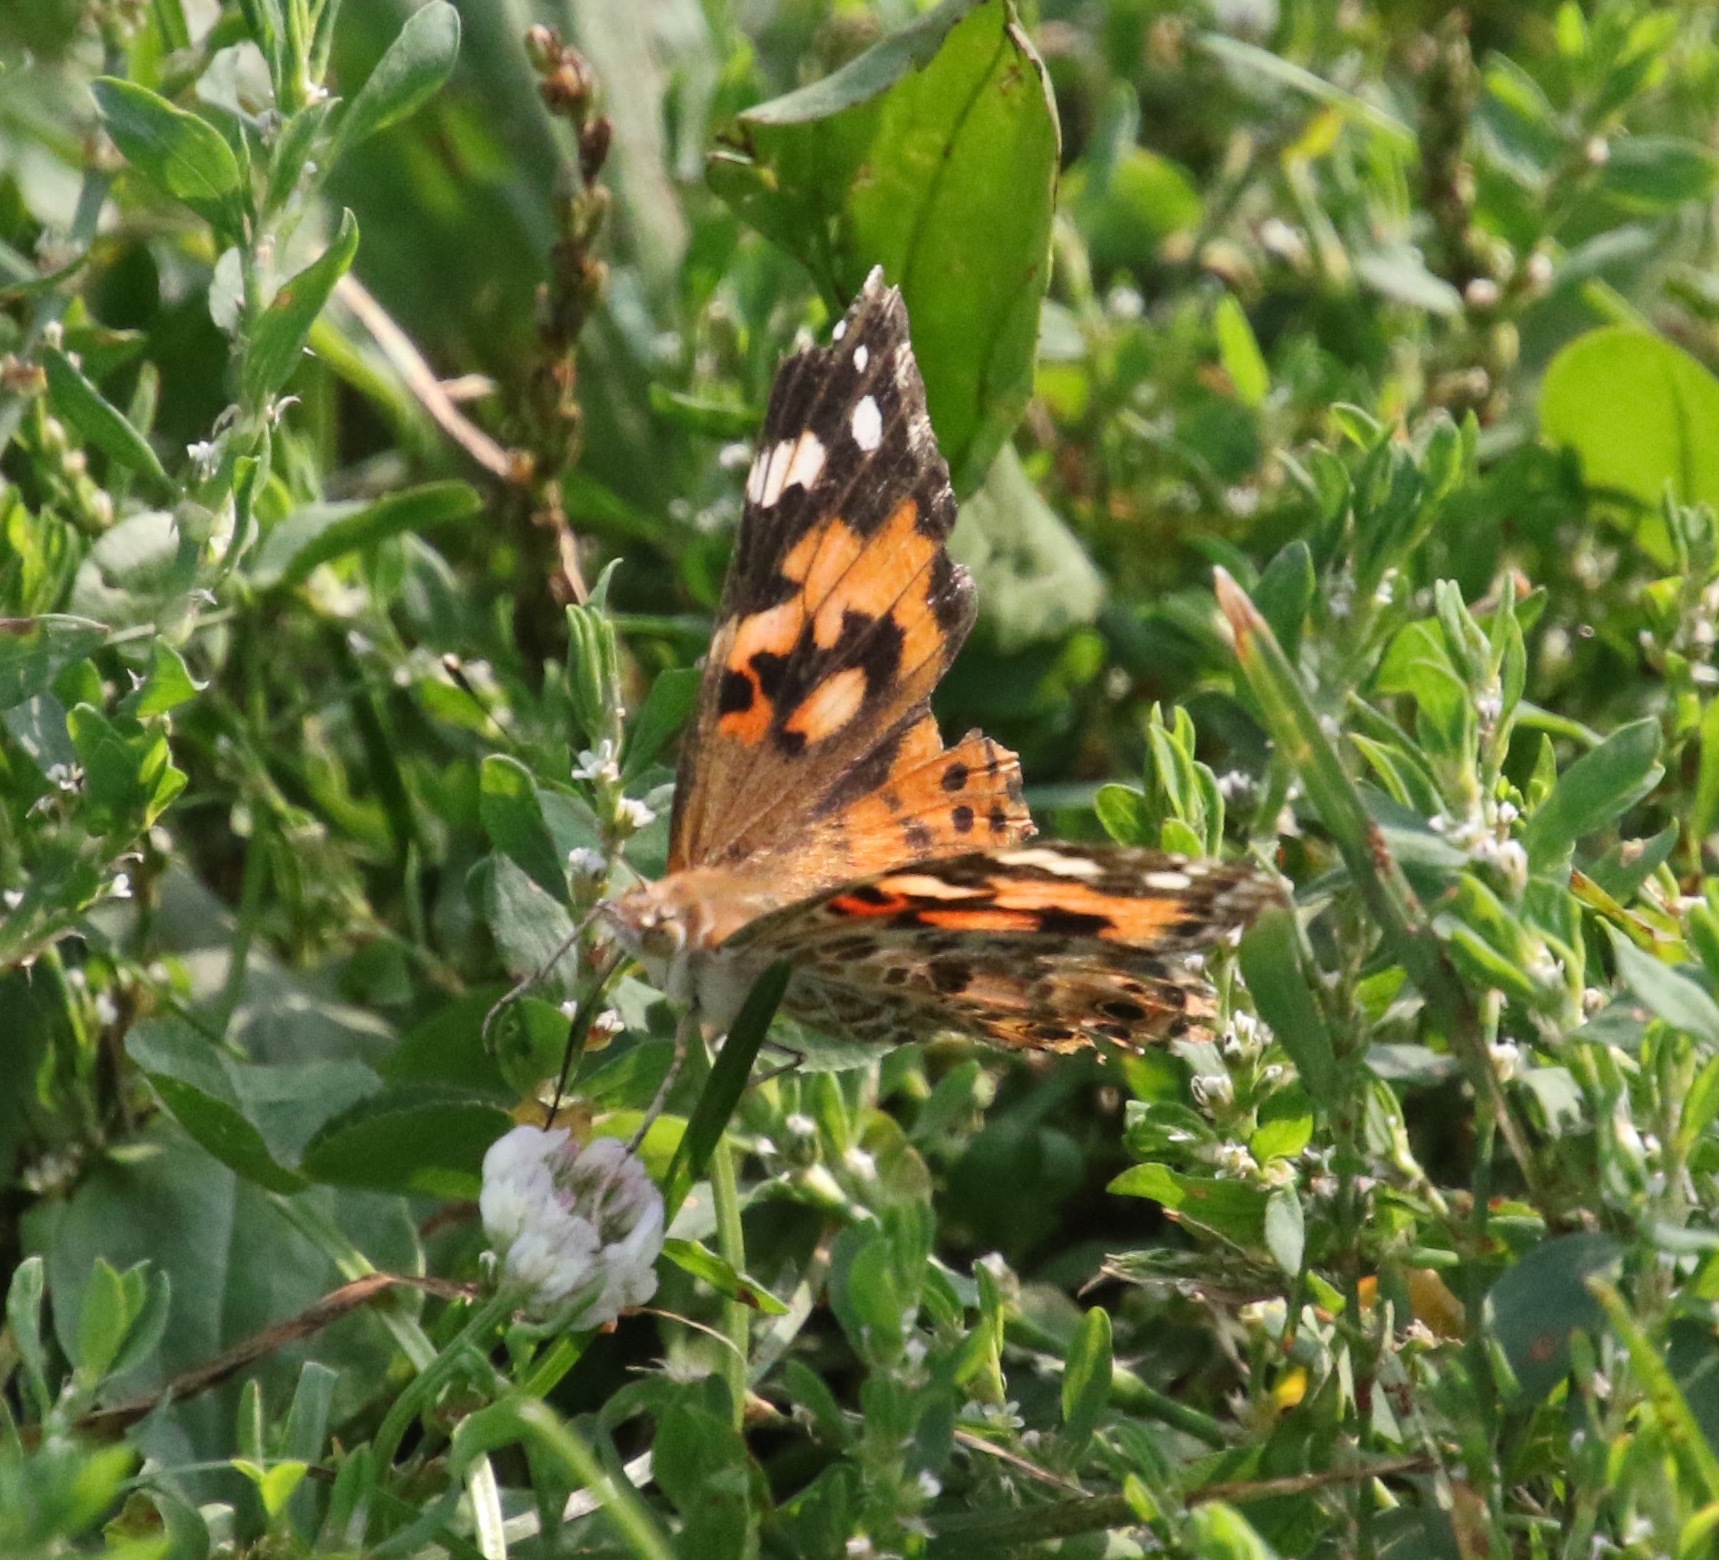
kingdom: Animalia
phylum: Arthropoda
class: Insecta
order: Lepidoptera
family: Nymphalidae
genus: Vanessa
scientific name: Vanessa cardui
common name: Painted lady
